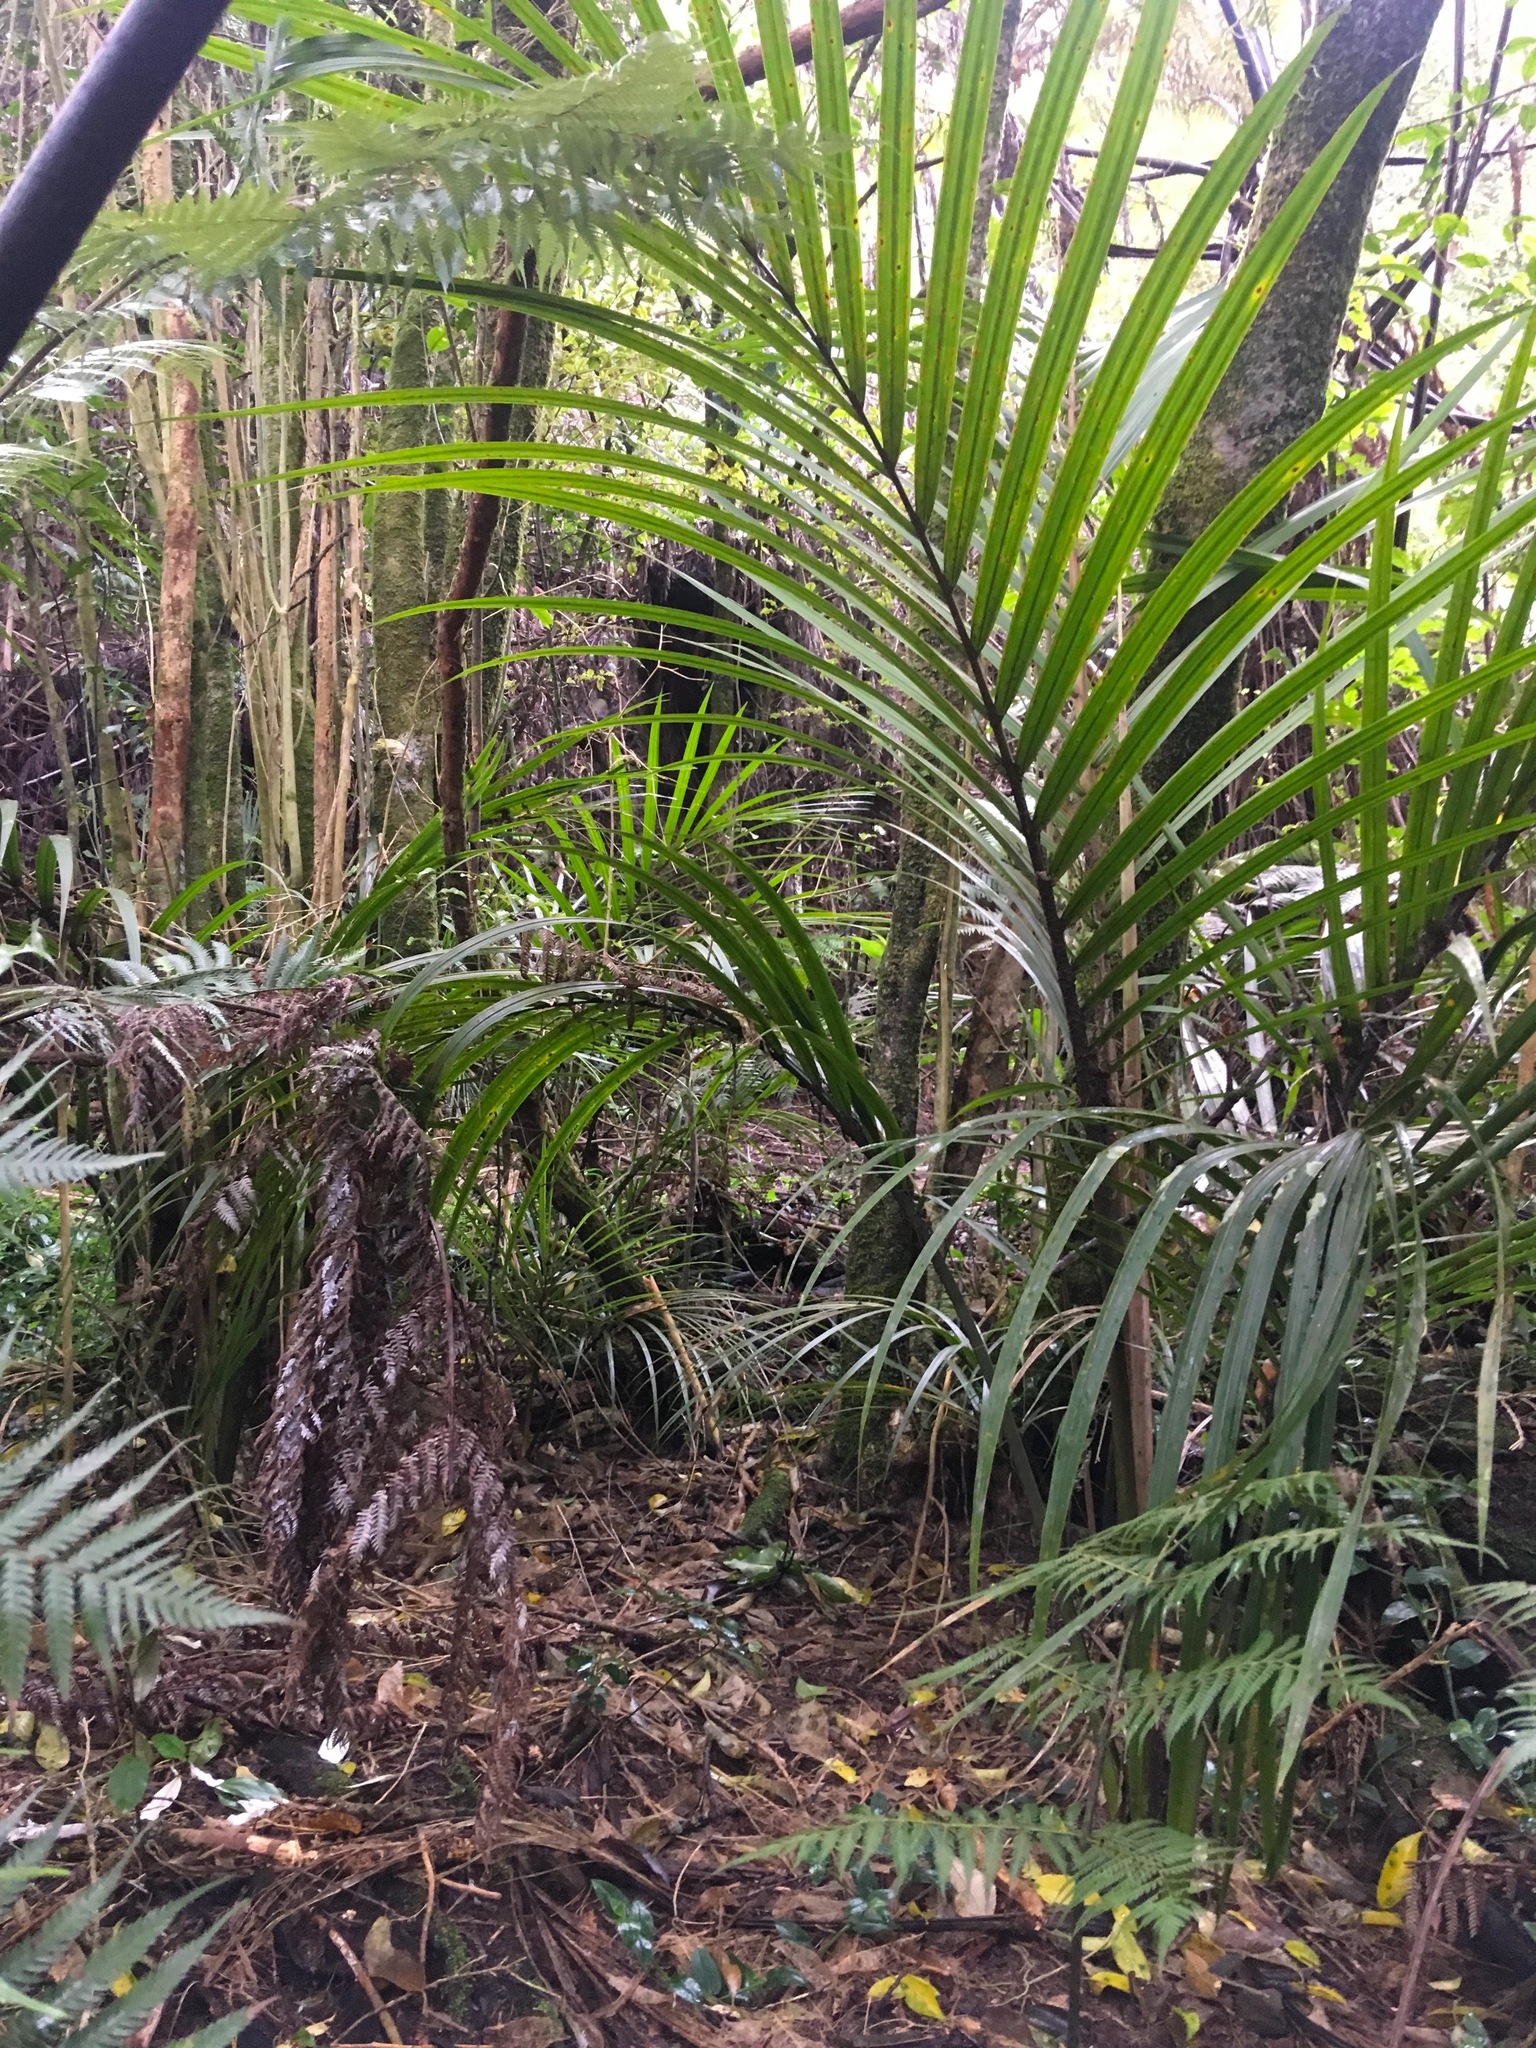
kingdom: Plantae
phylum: Tracheophyta
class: Liliopsida
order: Arecales
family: Arecaceae
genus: Rhopalostylis
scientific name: Rhopalostylis sapida
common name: Feather-duster palm
